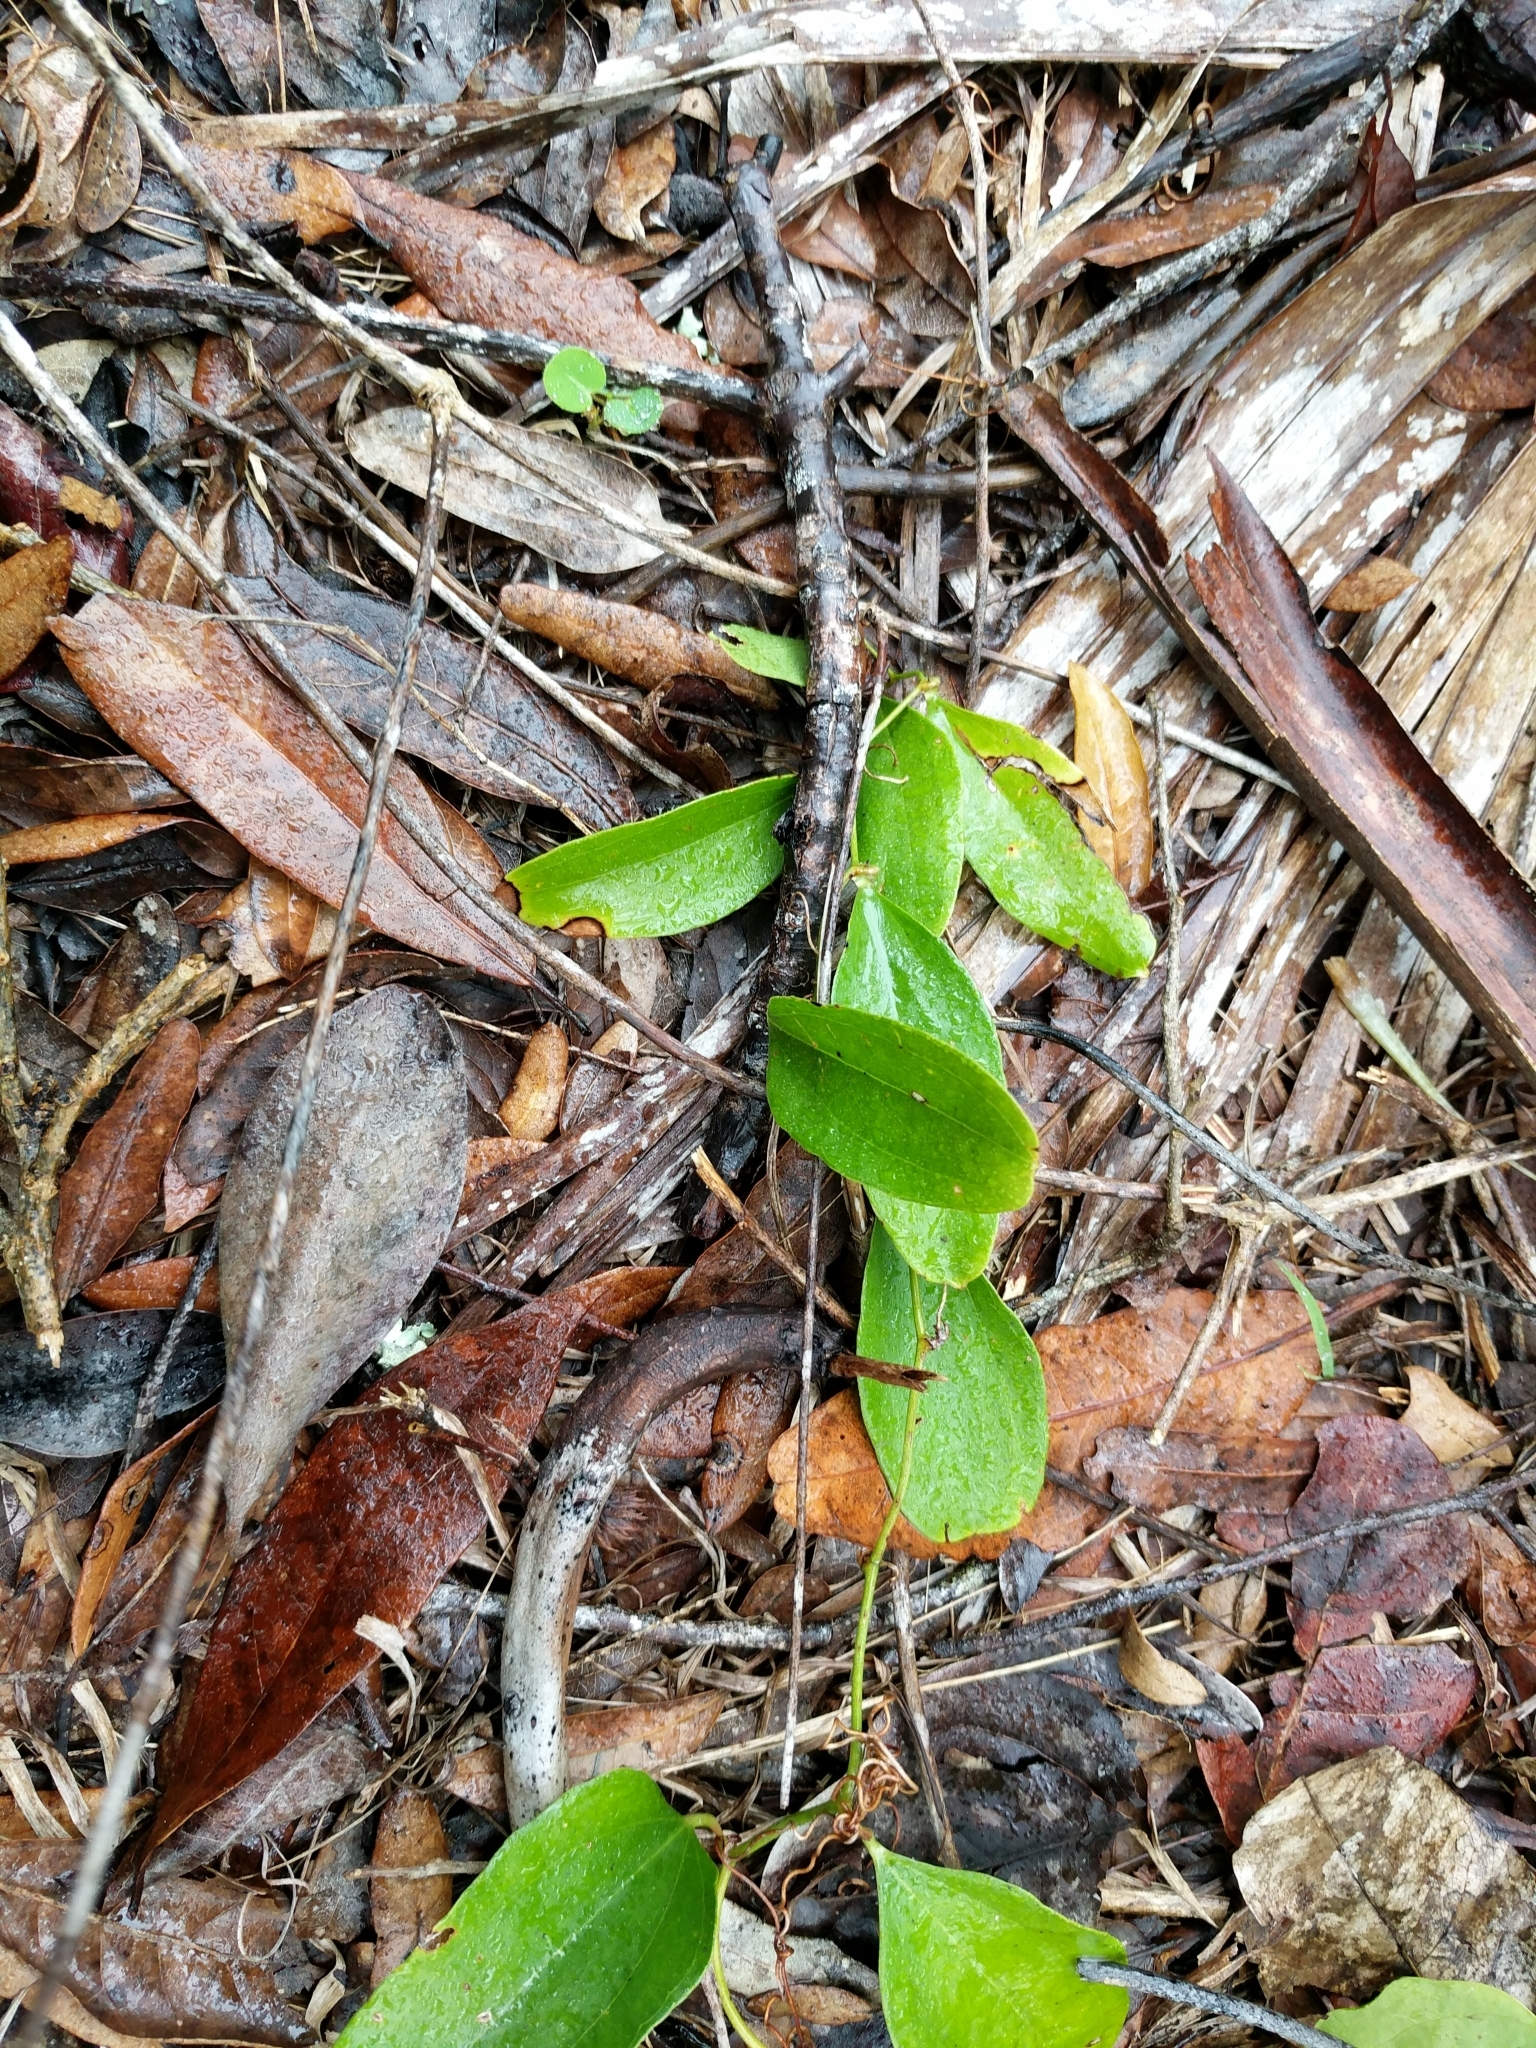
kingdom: Plantae
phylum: Tracheophyta
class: Liliopsida
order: Liliales
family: Smilacaceae
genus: Smilax
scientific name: Smilax auriculata
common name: Wild bamboo
